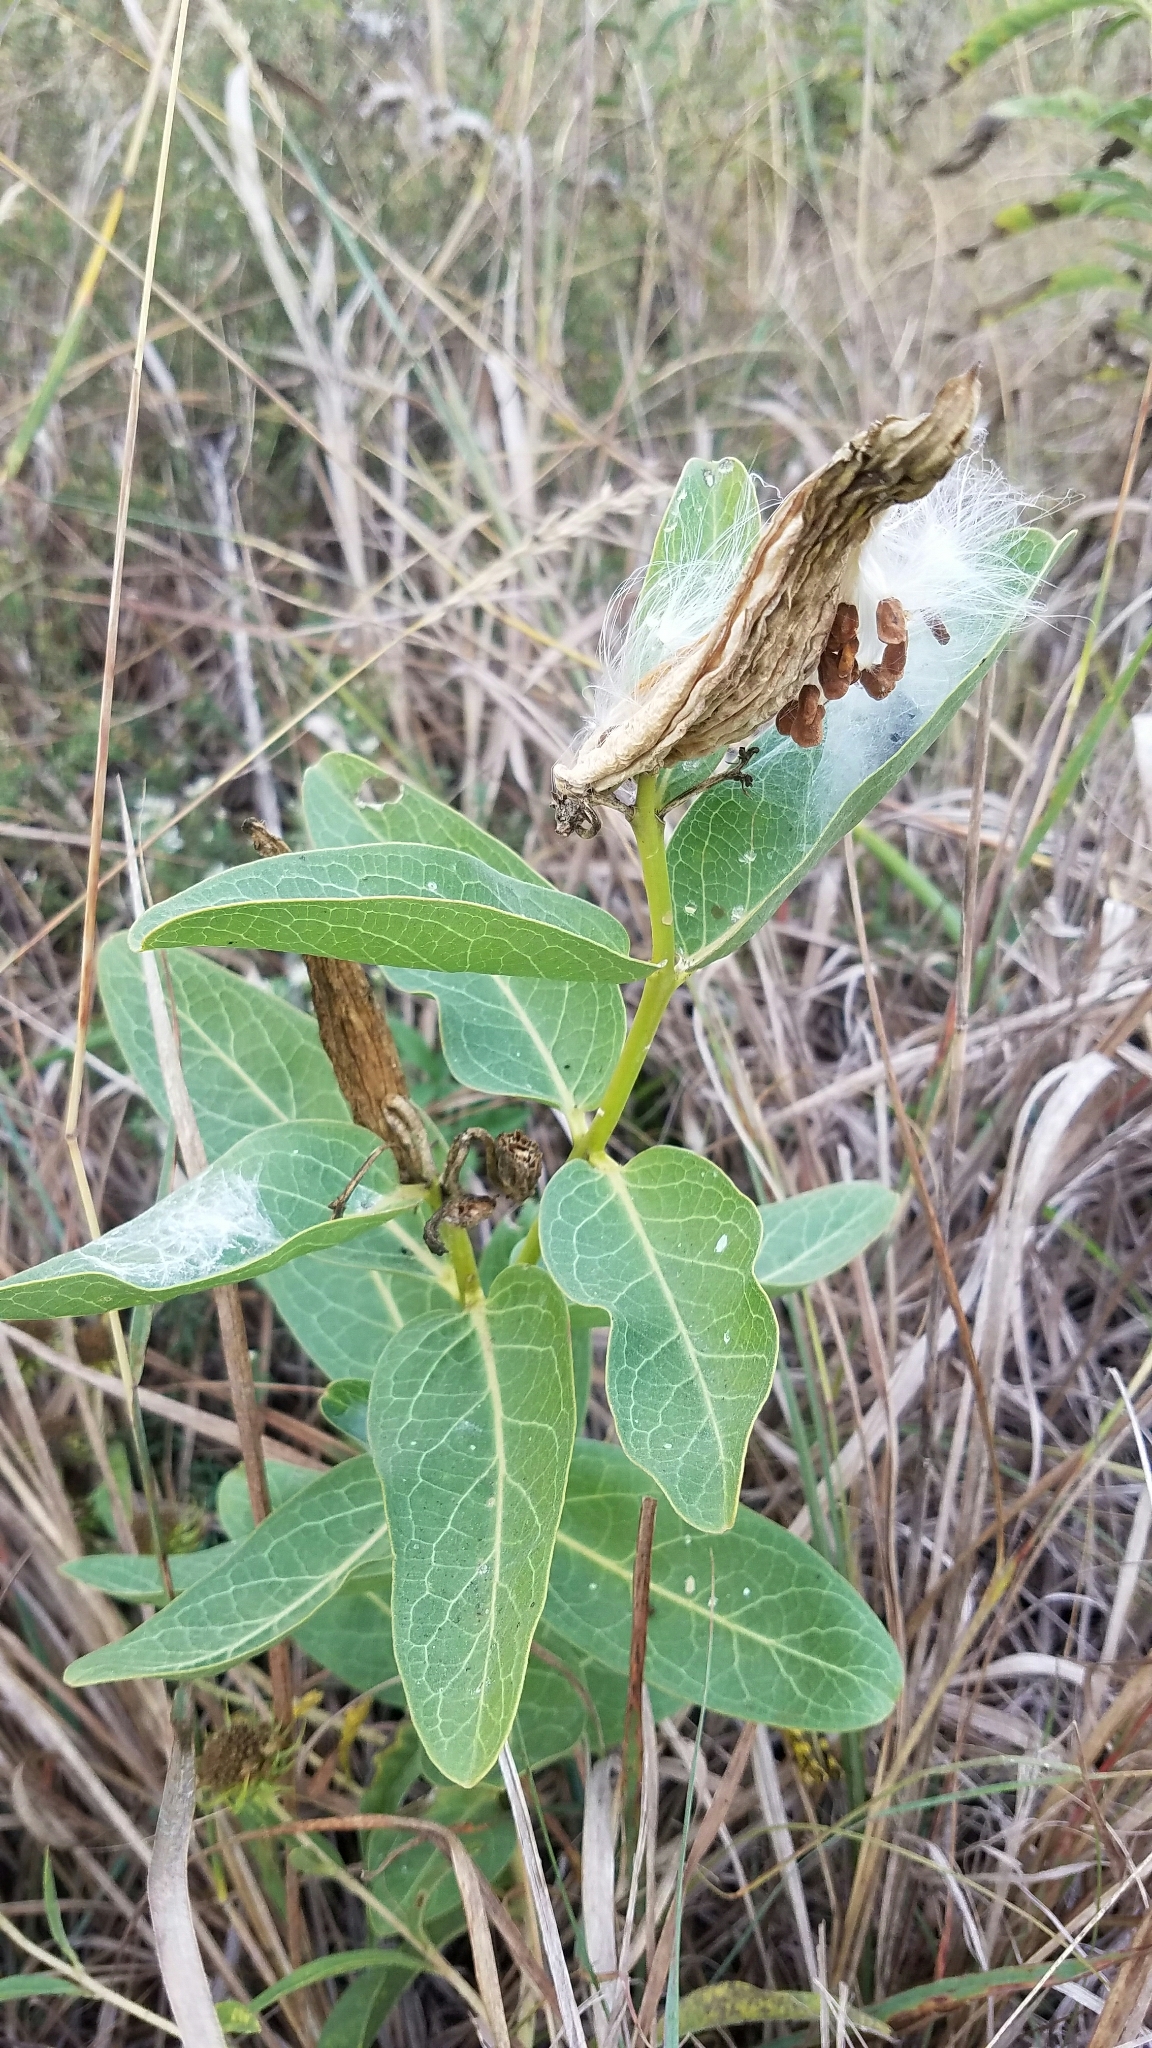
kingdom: Plantae
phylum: Tracheophyta
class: Magnoliopsida
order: Gentianales
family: Apocynaceae
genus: Asclepias
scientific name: Asclepias viridis
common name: Antelope-horns
